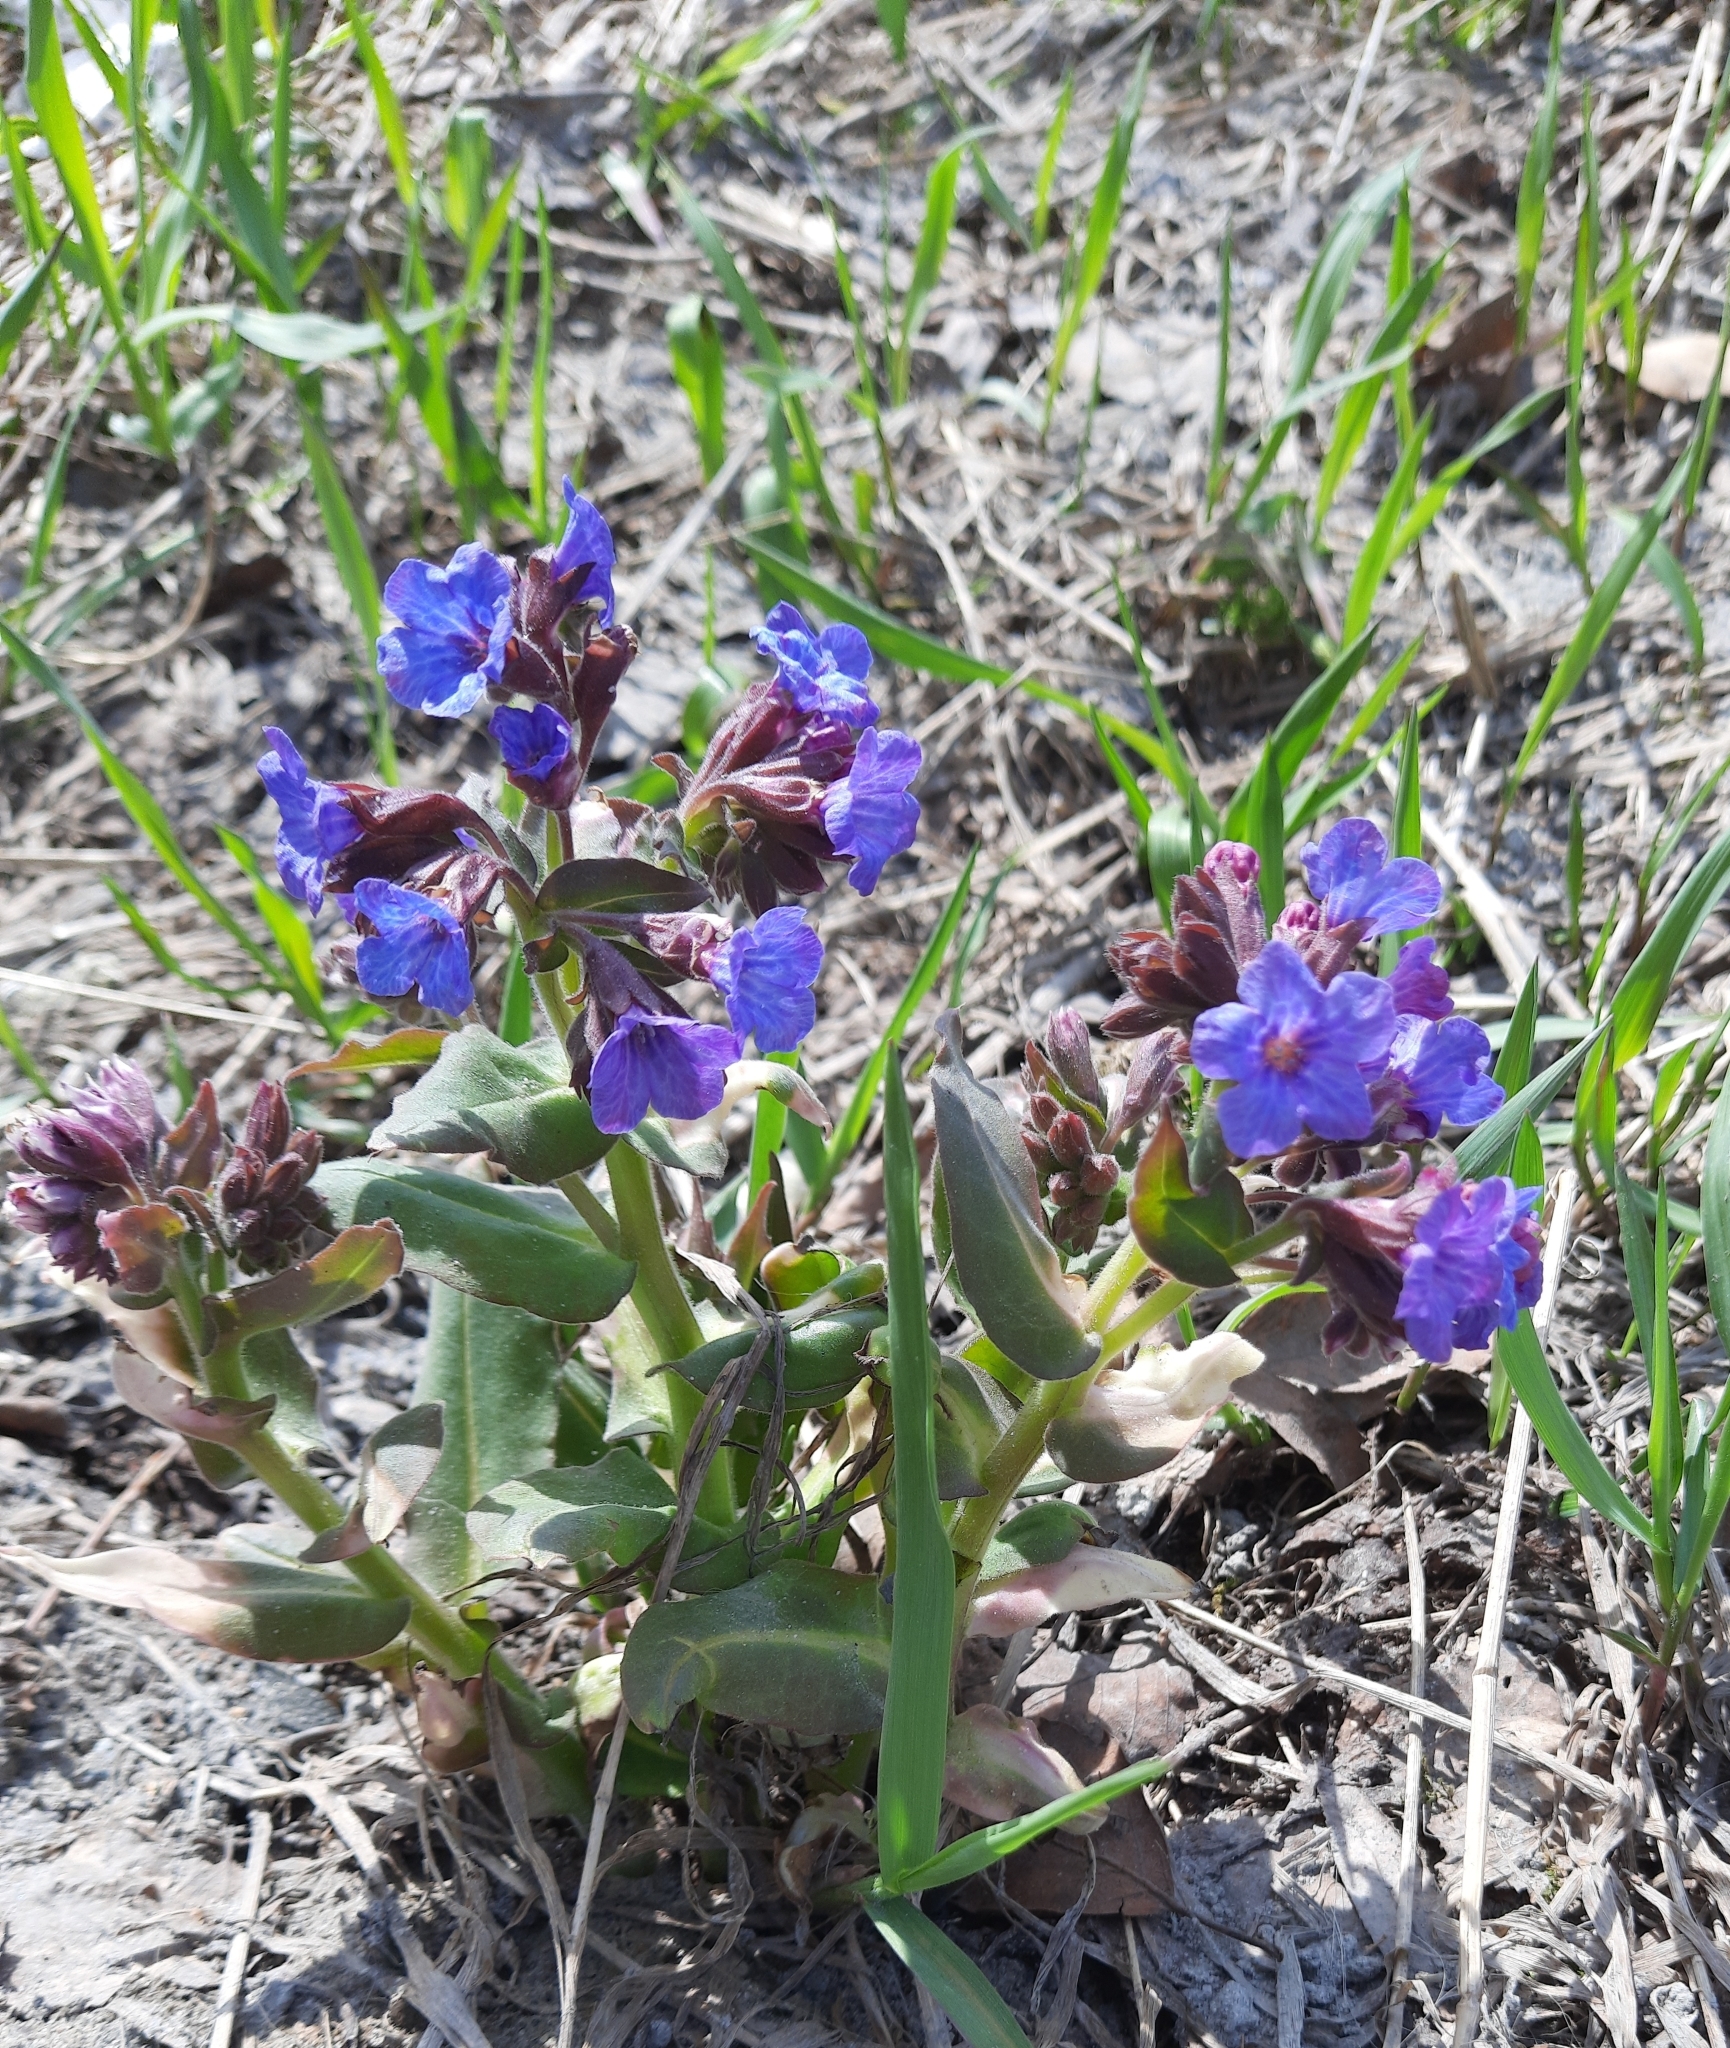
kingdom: Plantae
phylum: Tracheophyta
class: Magnoliopsida
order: Boraginales
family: Boraginaceae
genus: Pulmonaria
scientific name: Pulmonaria mollis
